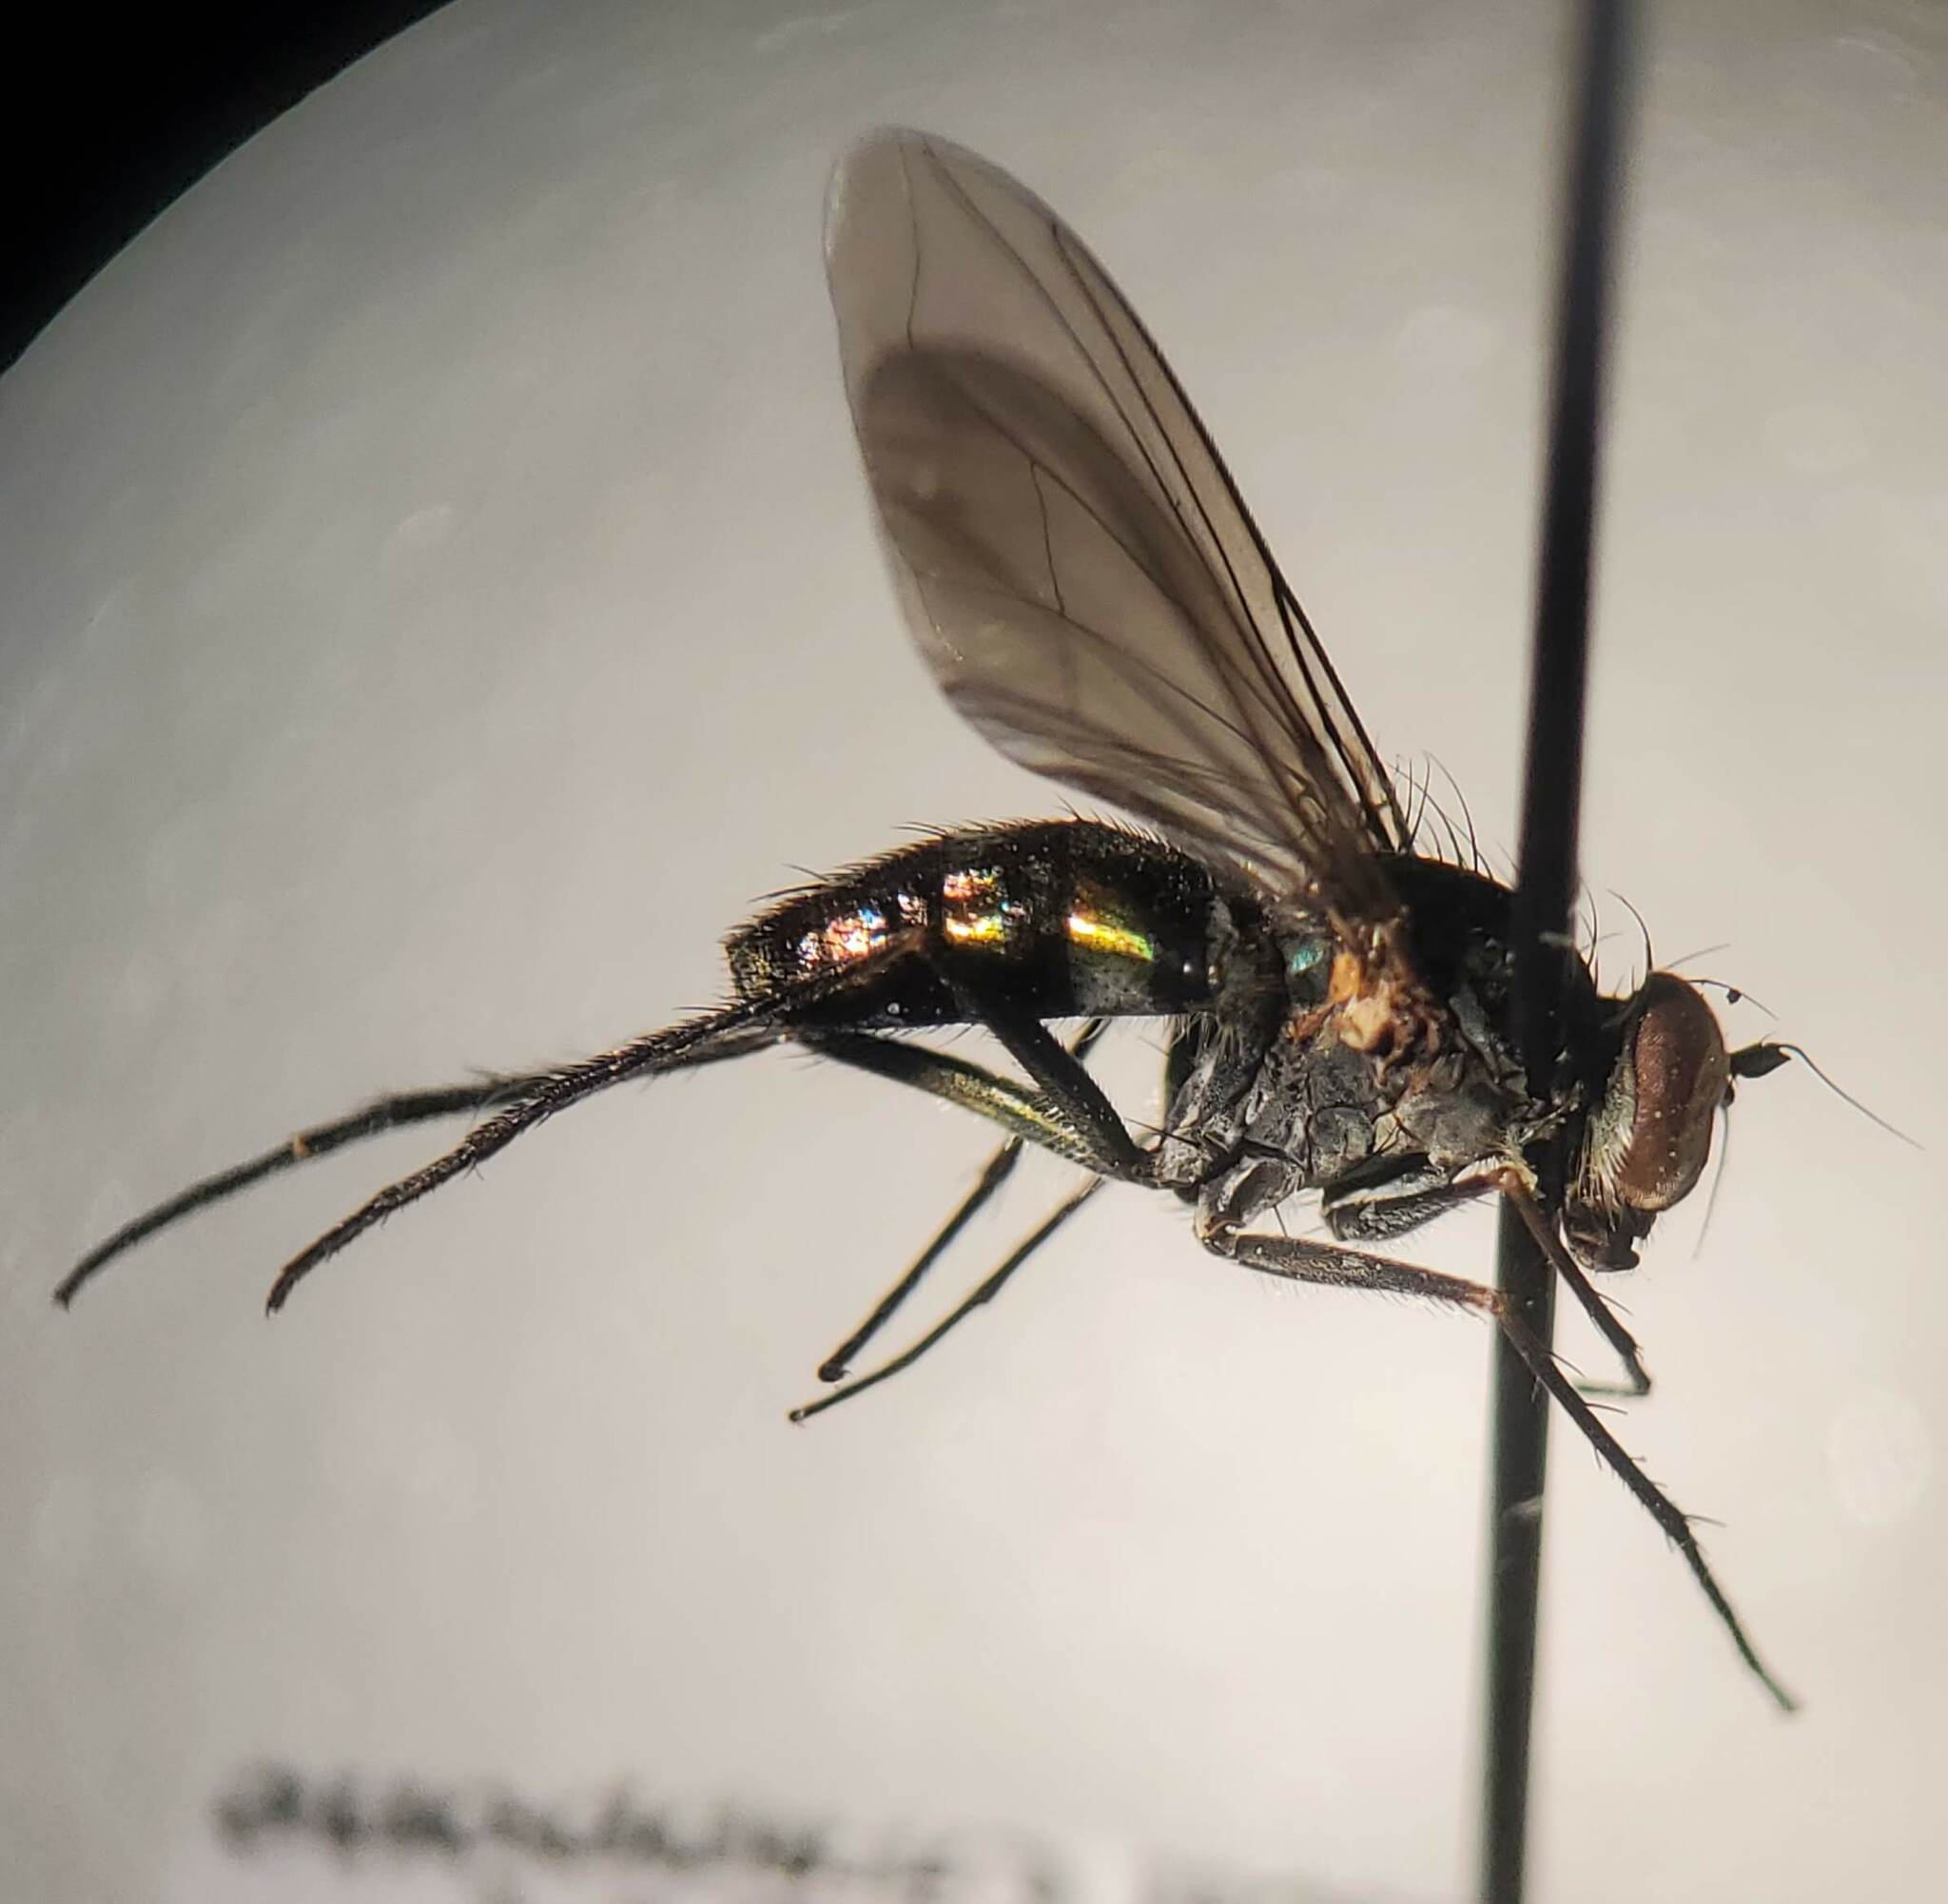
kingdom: Animalia
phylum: Arthropoda
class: Insecta
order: Diptera
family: Dolichopodidae
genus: Plagioneurus
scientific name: Plagioneurus univittatus
